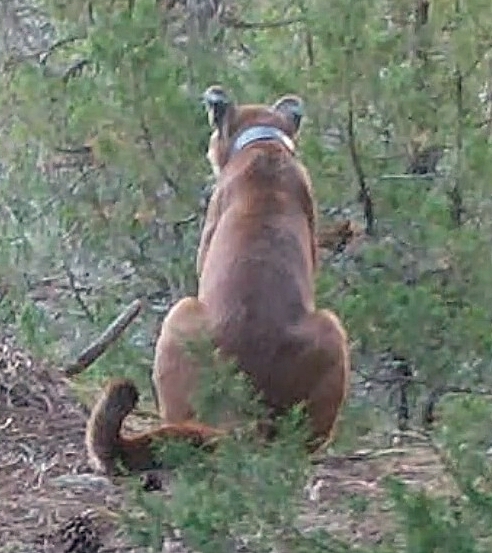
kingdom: Animalia
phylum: Chordata
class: Mammalia
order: Carnivora
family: Felidae
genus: Puma
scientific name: Puma concolor
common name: Puma
